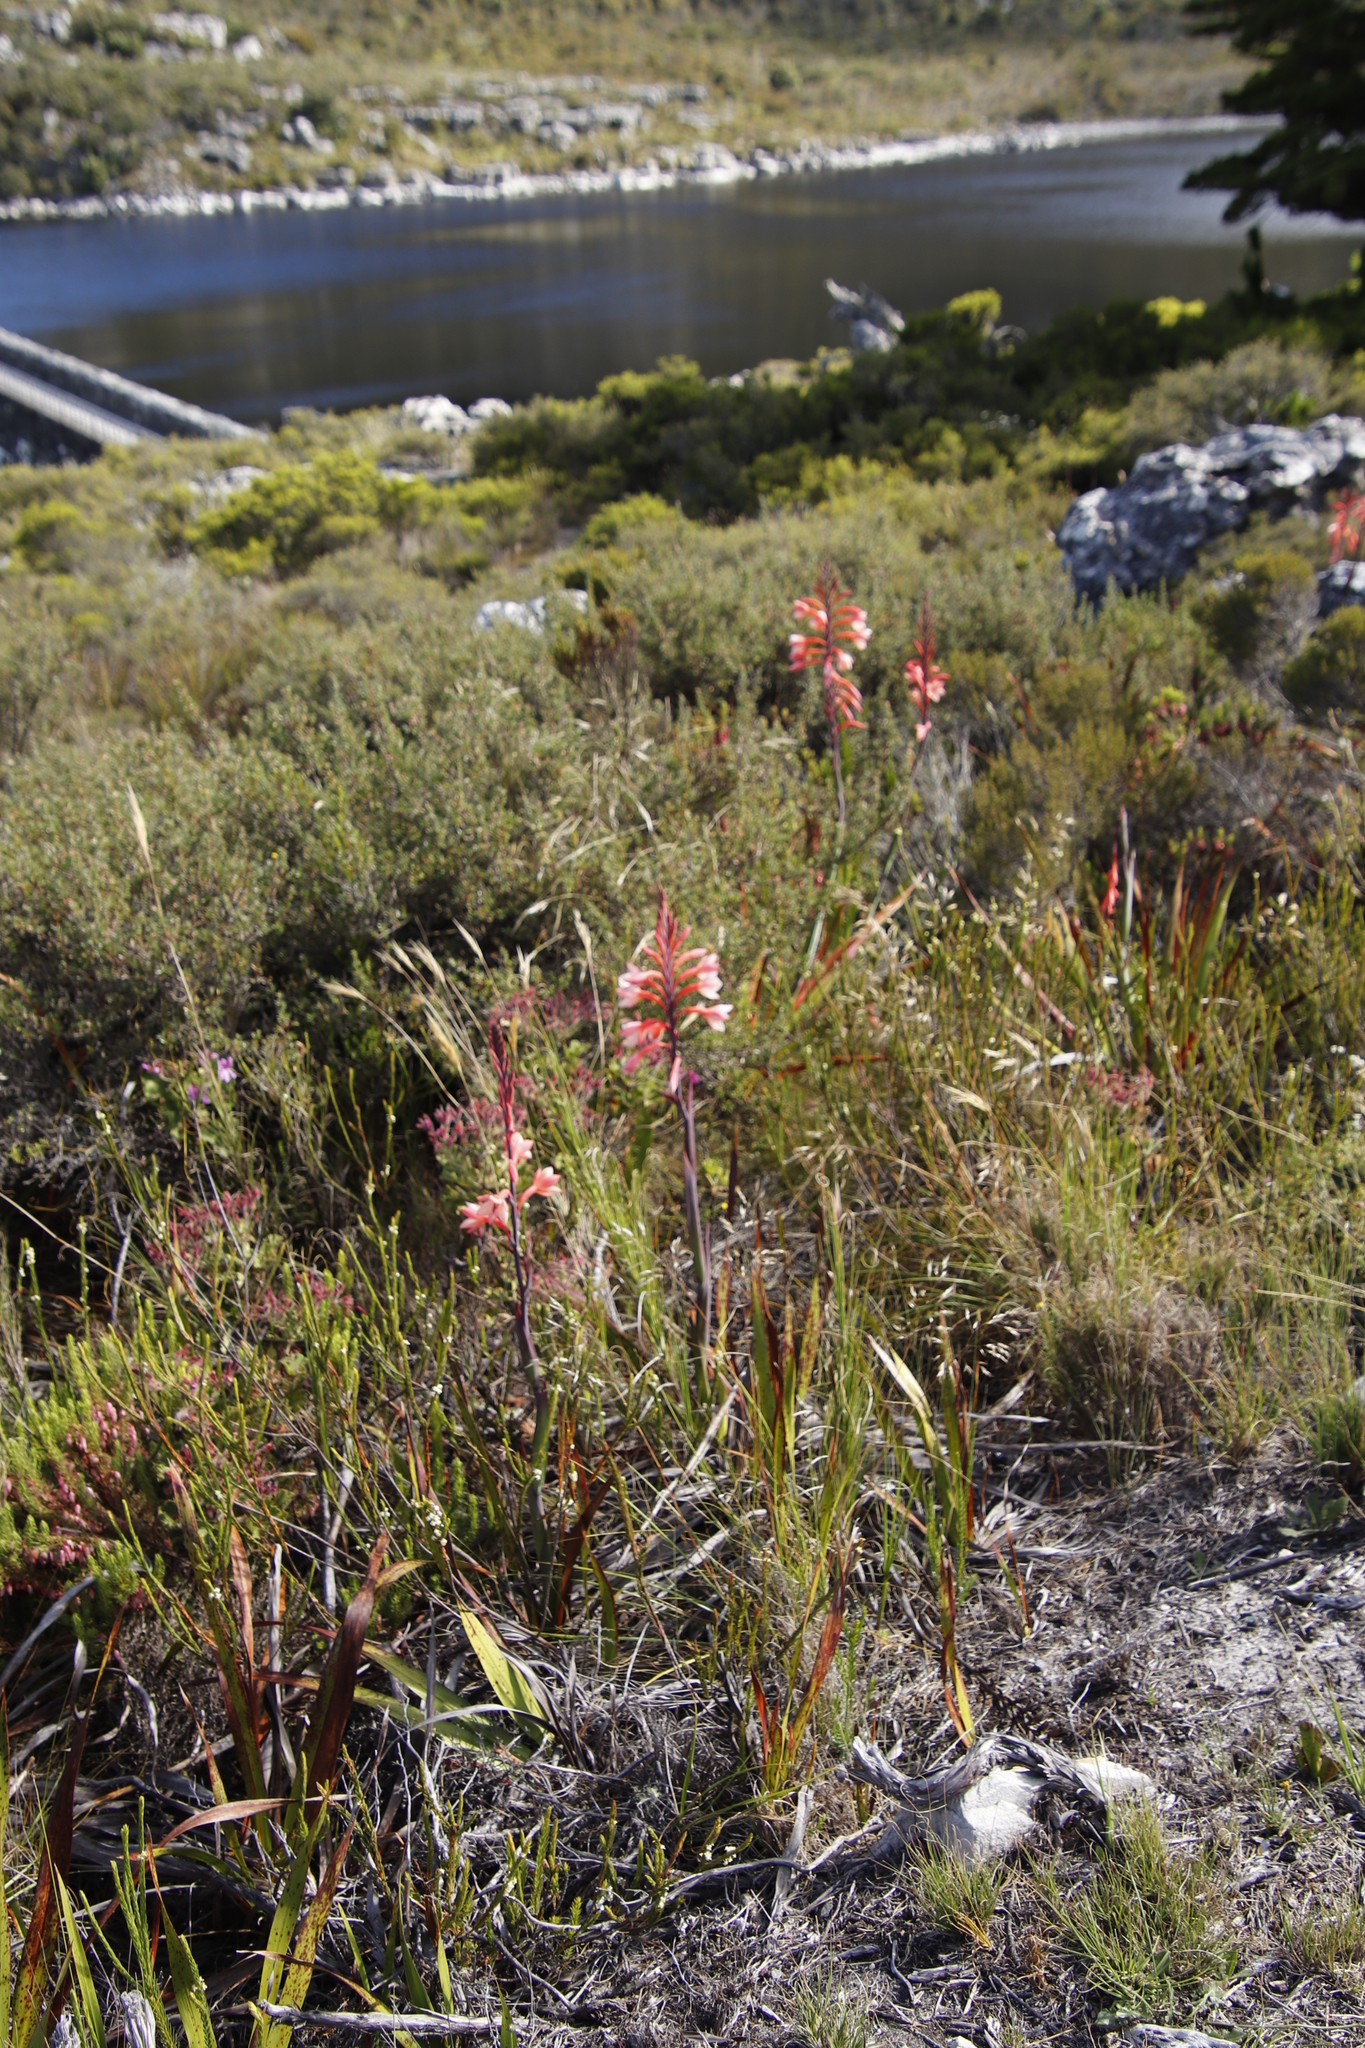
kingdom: Plantae
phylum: Tracheophyta
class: Liliopsida
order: Asparagales
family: Iridaceae
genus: Watsonia
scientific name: Watsonia tabularis
